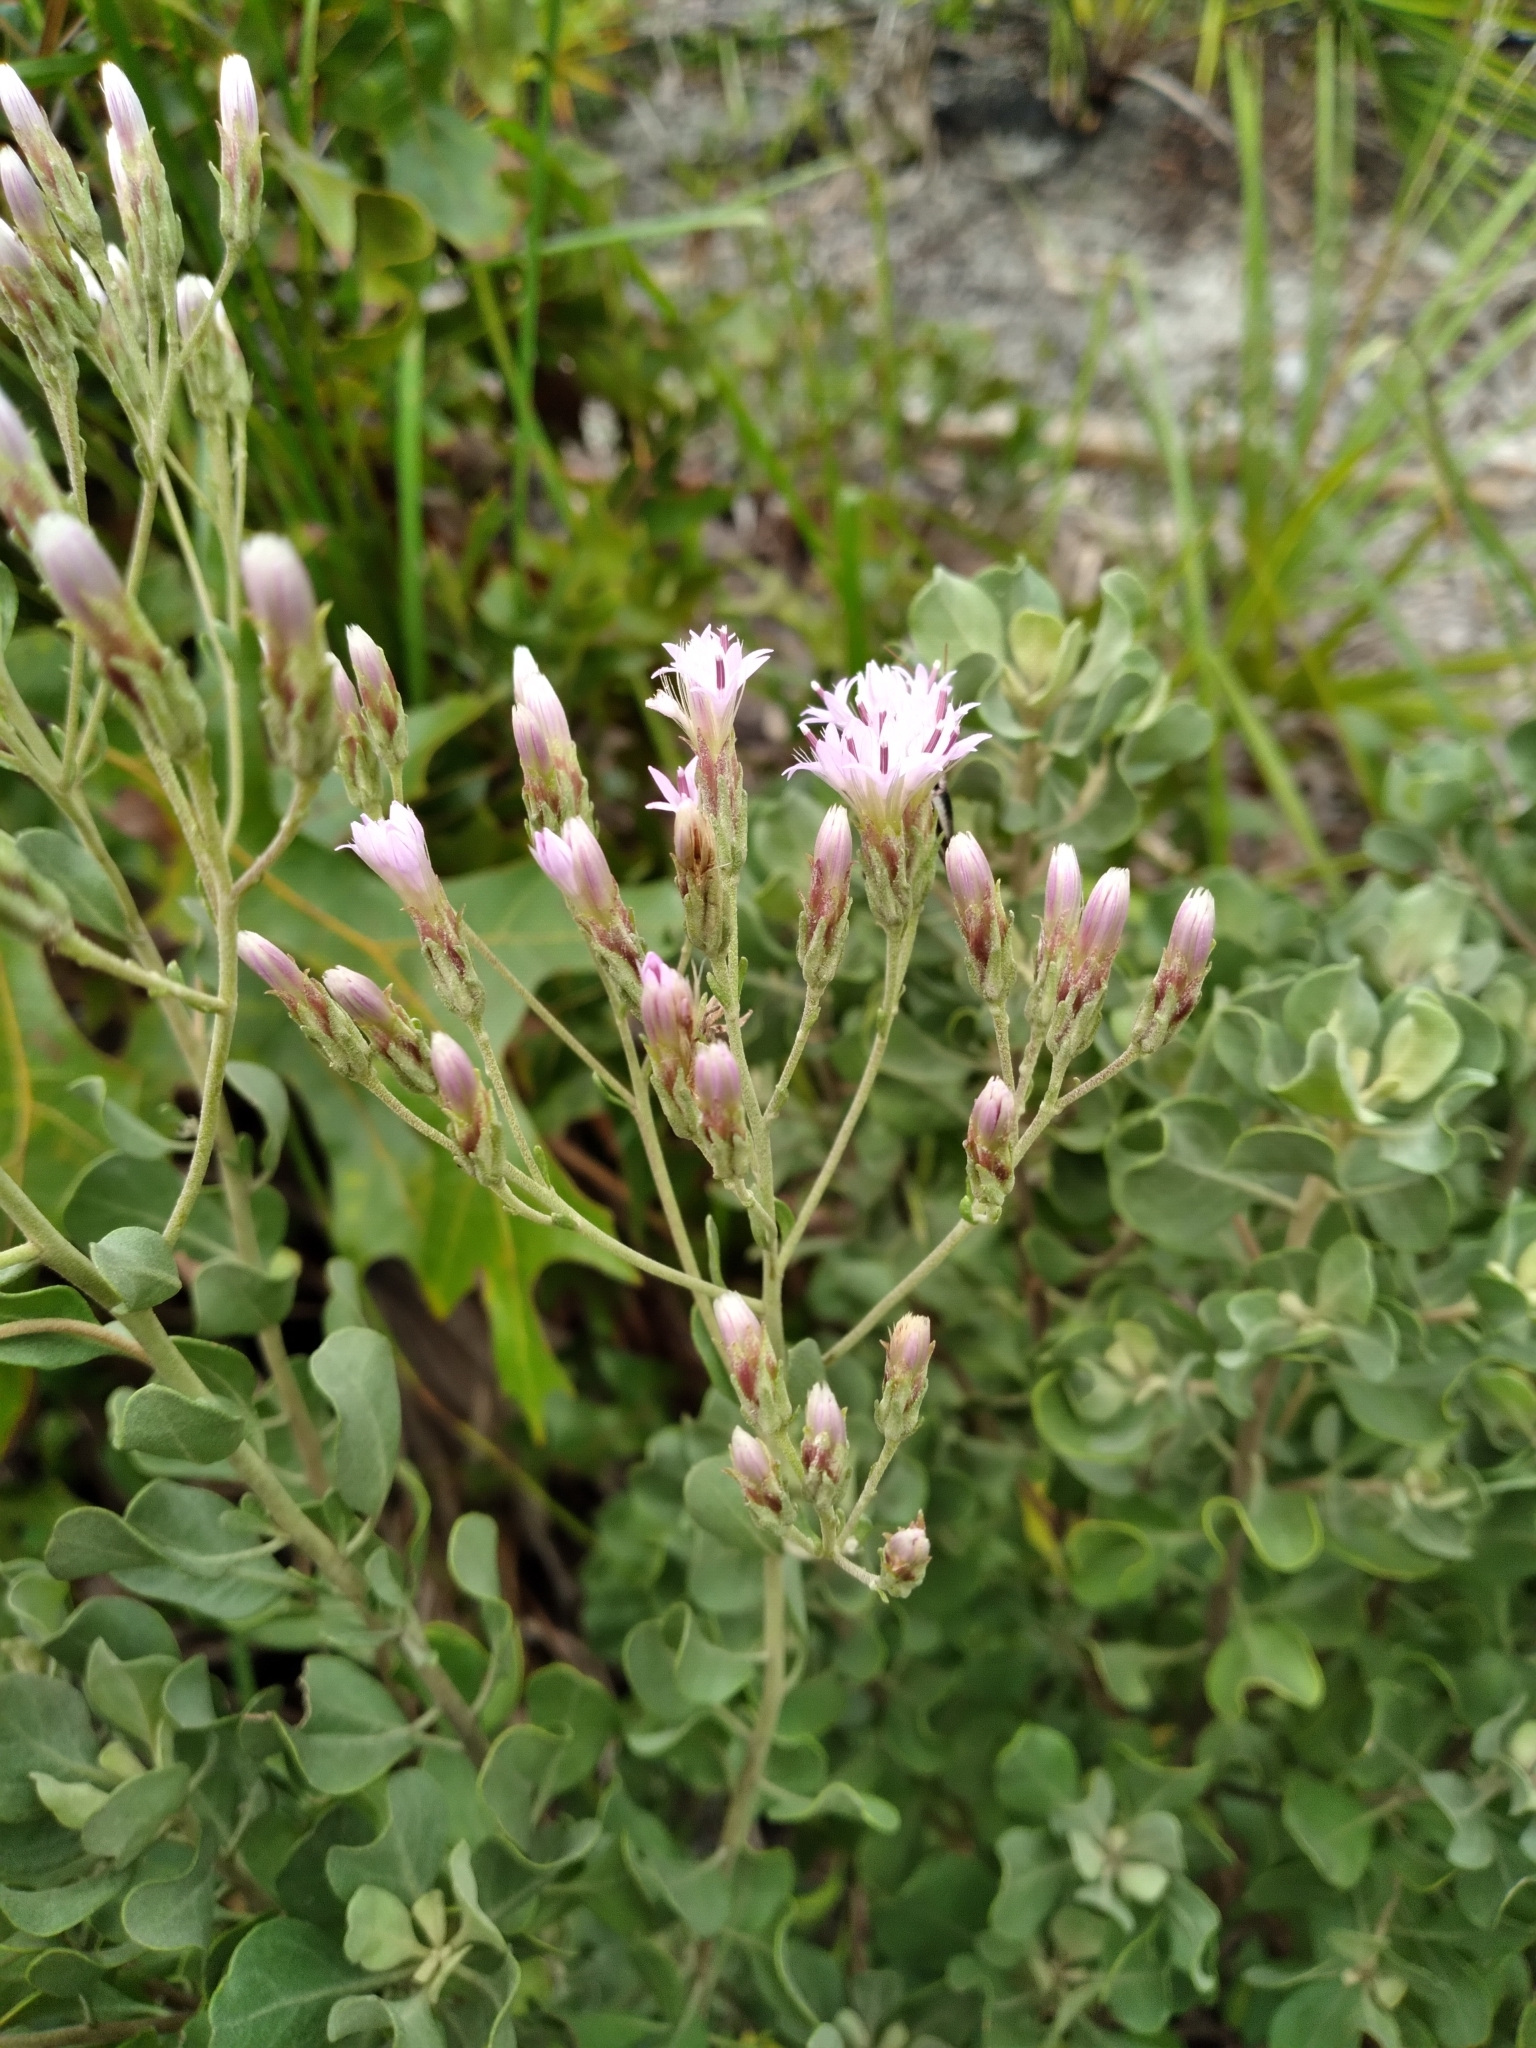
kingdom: Plantae
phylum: Tracheophyta
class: Magnoliopsida
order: Asterales
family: Asteraceae
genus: Garberia
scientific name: Garberia heterophylla
